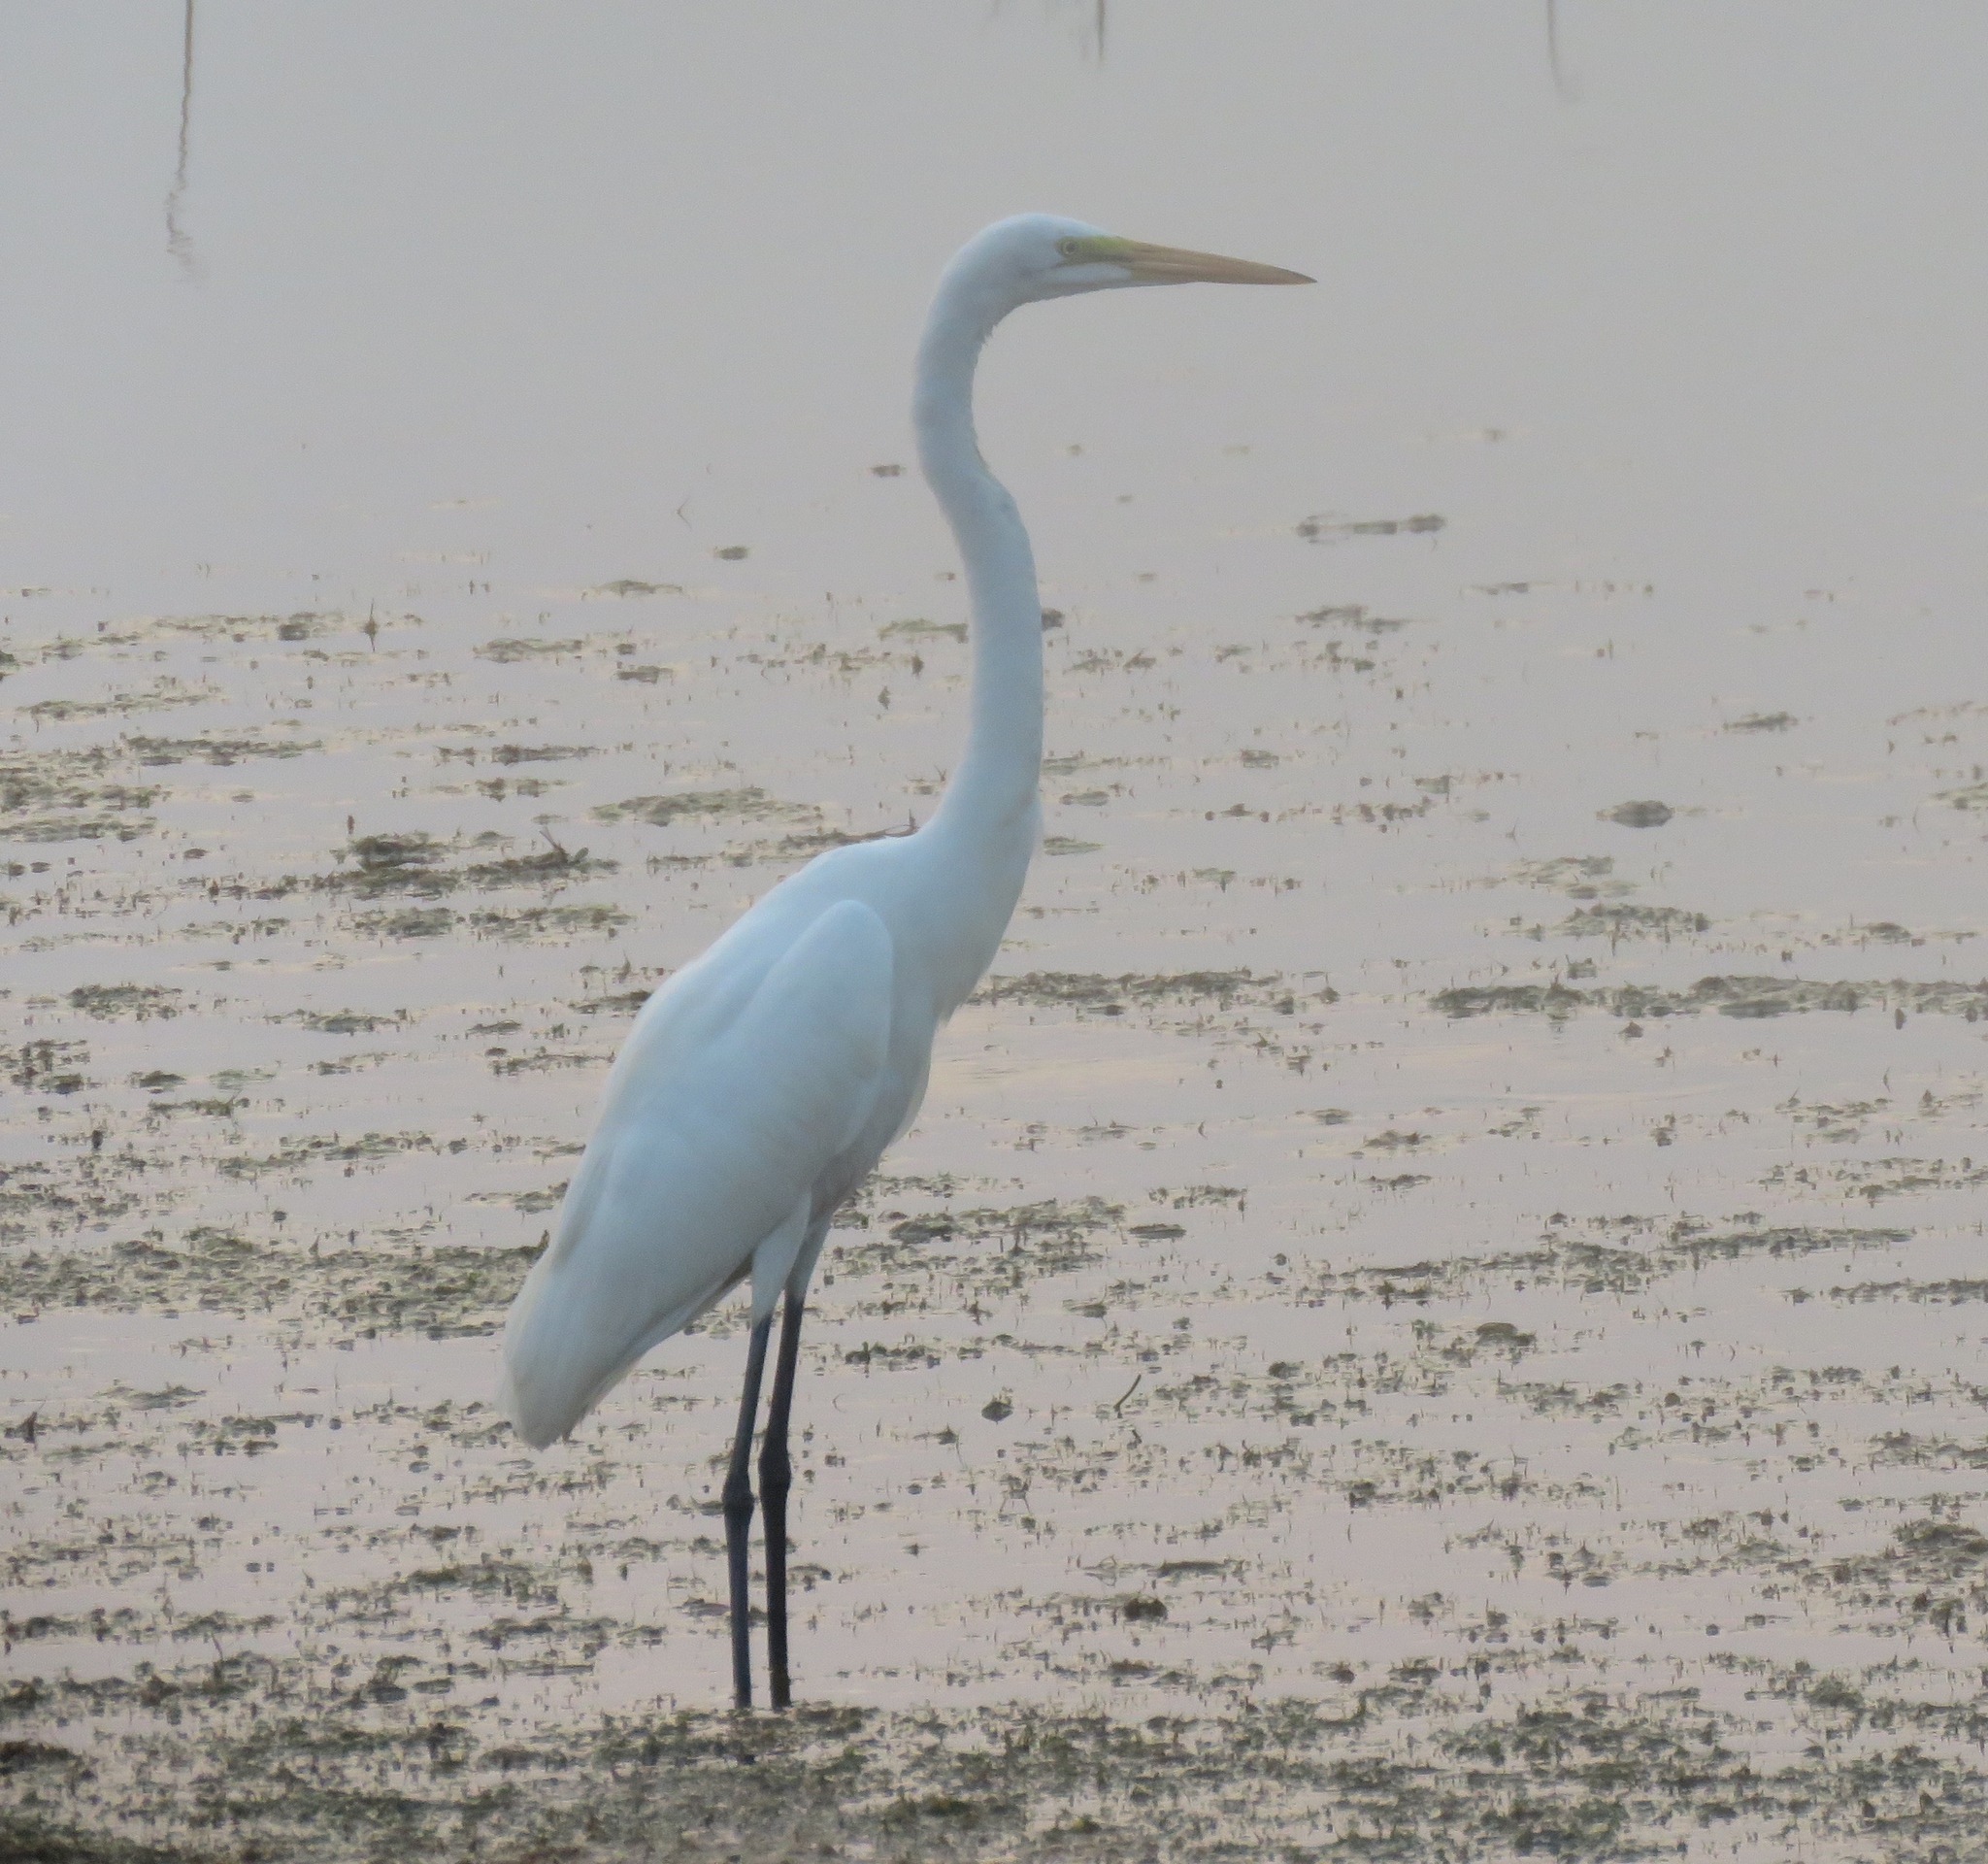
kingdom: Animalia
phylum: Chordata
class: Aves
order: Pelecaniformes
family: Ardeidae
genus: Ardea
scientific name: Ardea alba
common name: Great egret
